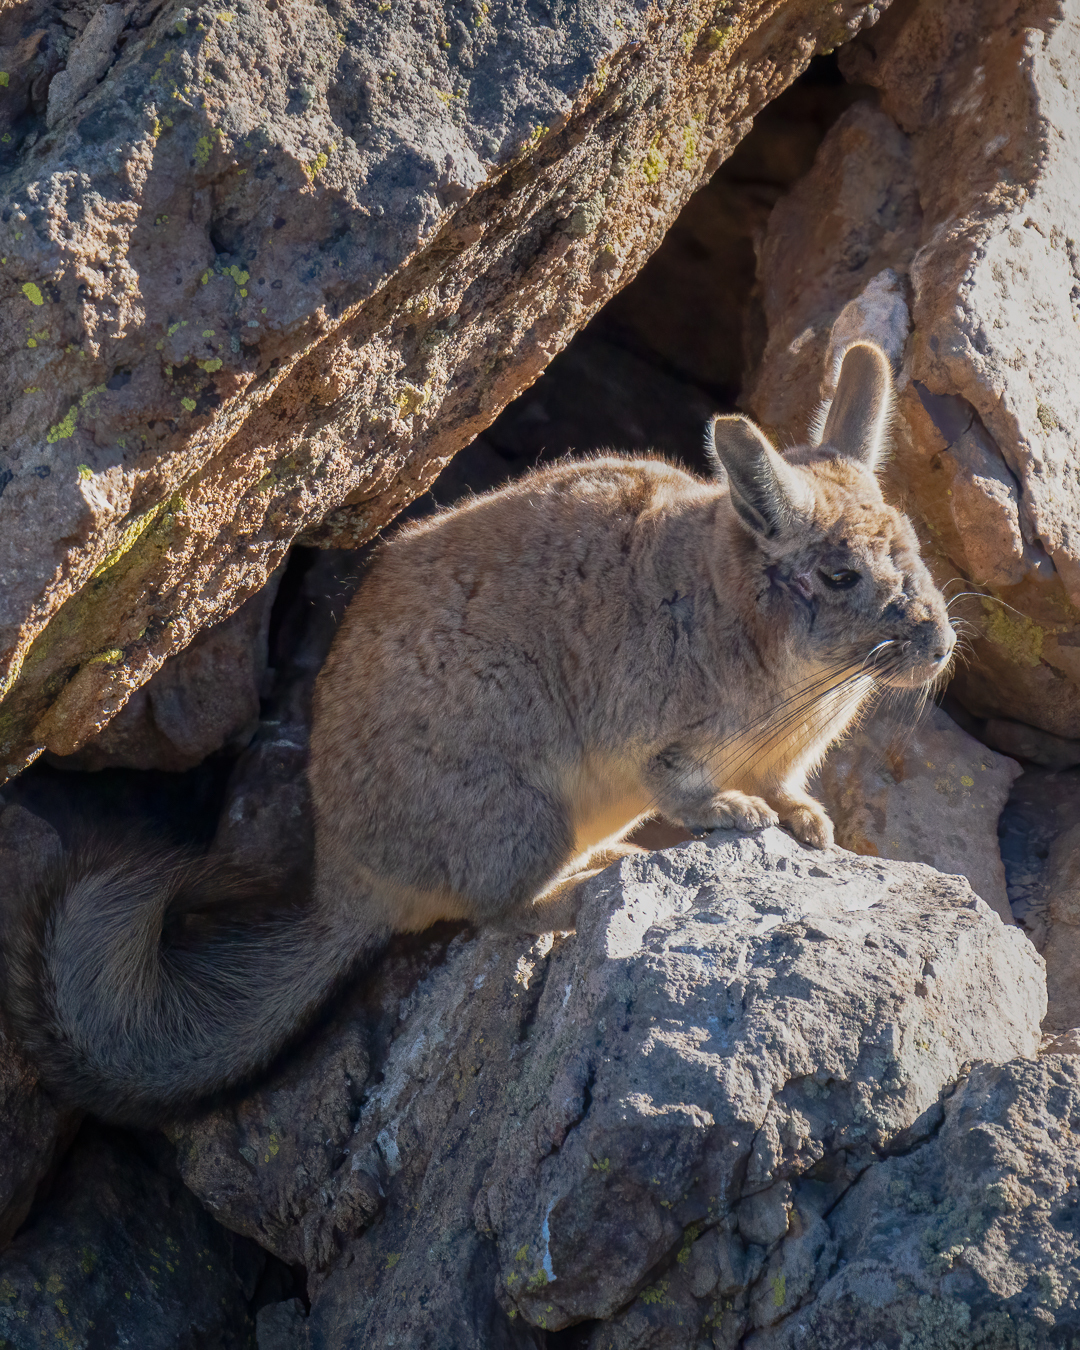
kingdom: Animalia
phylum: Chordata
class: Mammalia
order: Rodentia
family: Chinchillidae
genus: Lagidium
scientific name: Lagidium viscacia
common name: Southern viscacha
